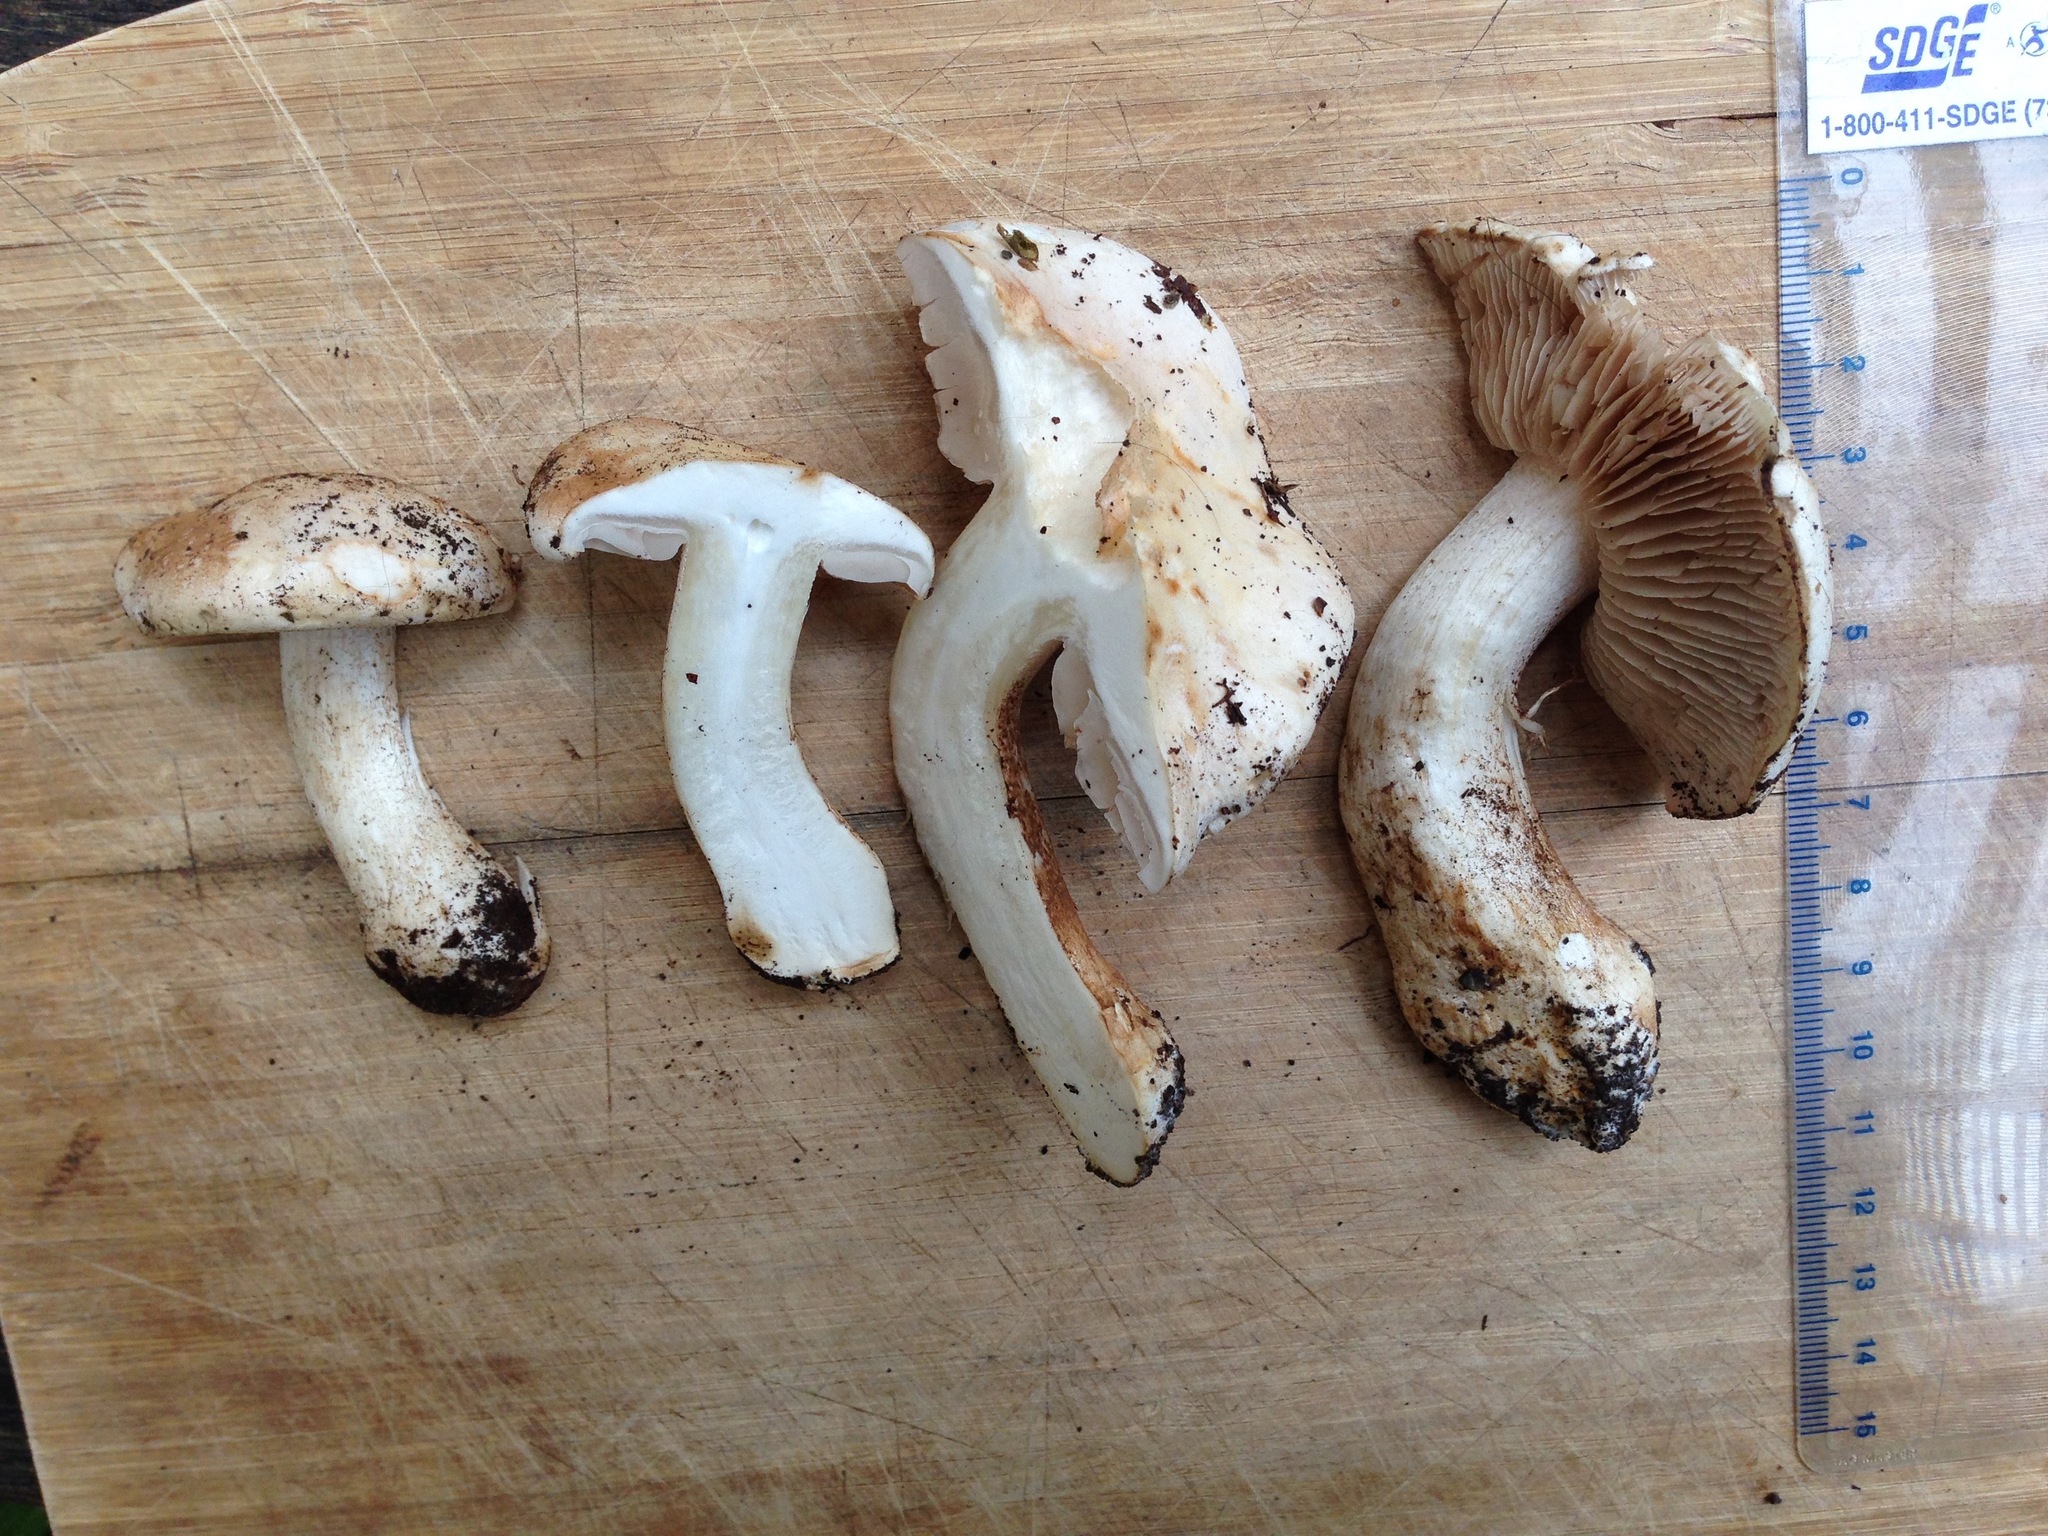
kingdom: Fungi
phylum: Basidiomycota
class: Agaricomycetes
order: Agaricales
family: Hymenogastraceae
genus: Hebeloma
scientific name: Hebeloma crustuliniforme
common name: Poison pie
